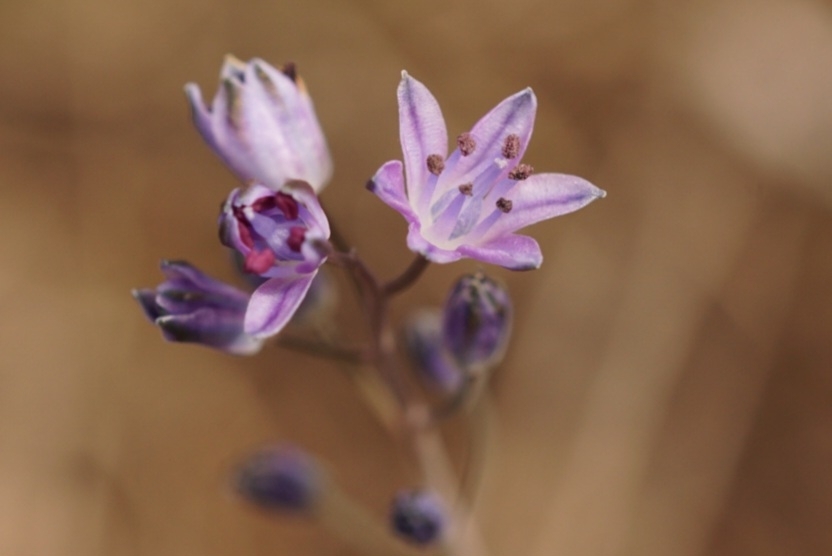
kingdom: Plantae
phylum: Tracheophyta
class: Liliopsida
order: Asparagales
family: Asparagaceae
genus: Prospero
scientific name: Prospero autumnale
